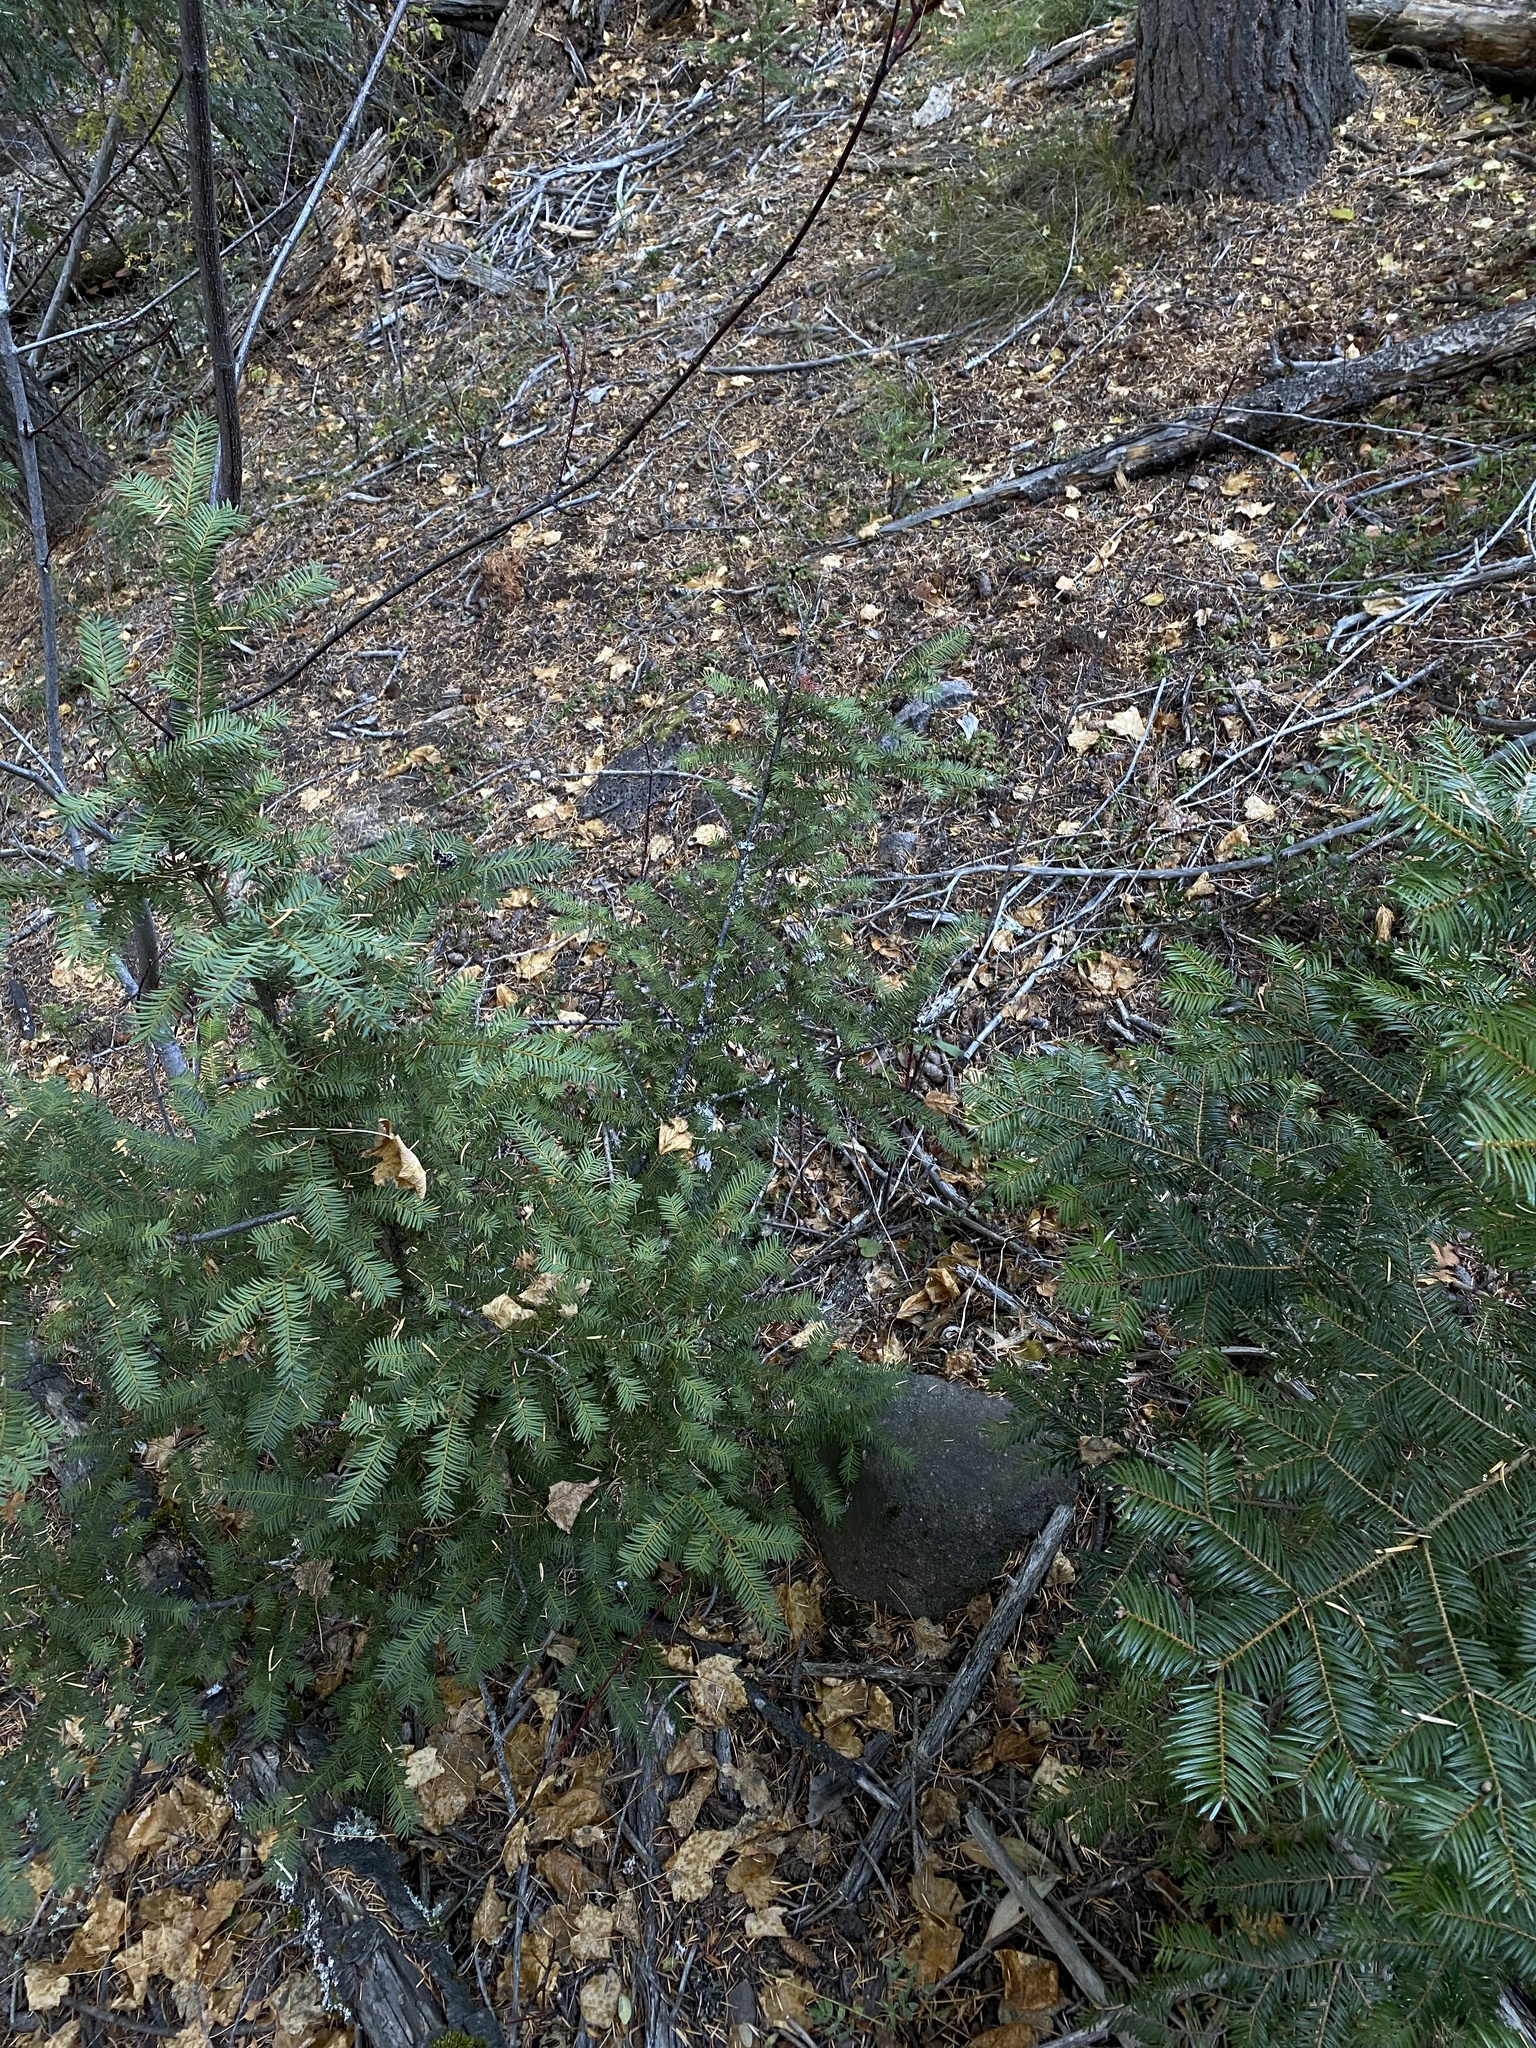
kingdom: Plantae
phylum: Tracheophyta
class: Pinopsida
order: Pinales
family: Taxaceae
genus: Taxus
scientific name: Taxus brevifolia
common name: Pacific yew
